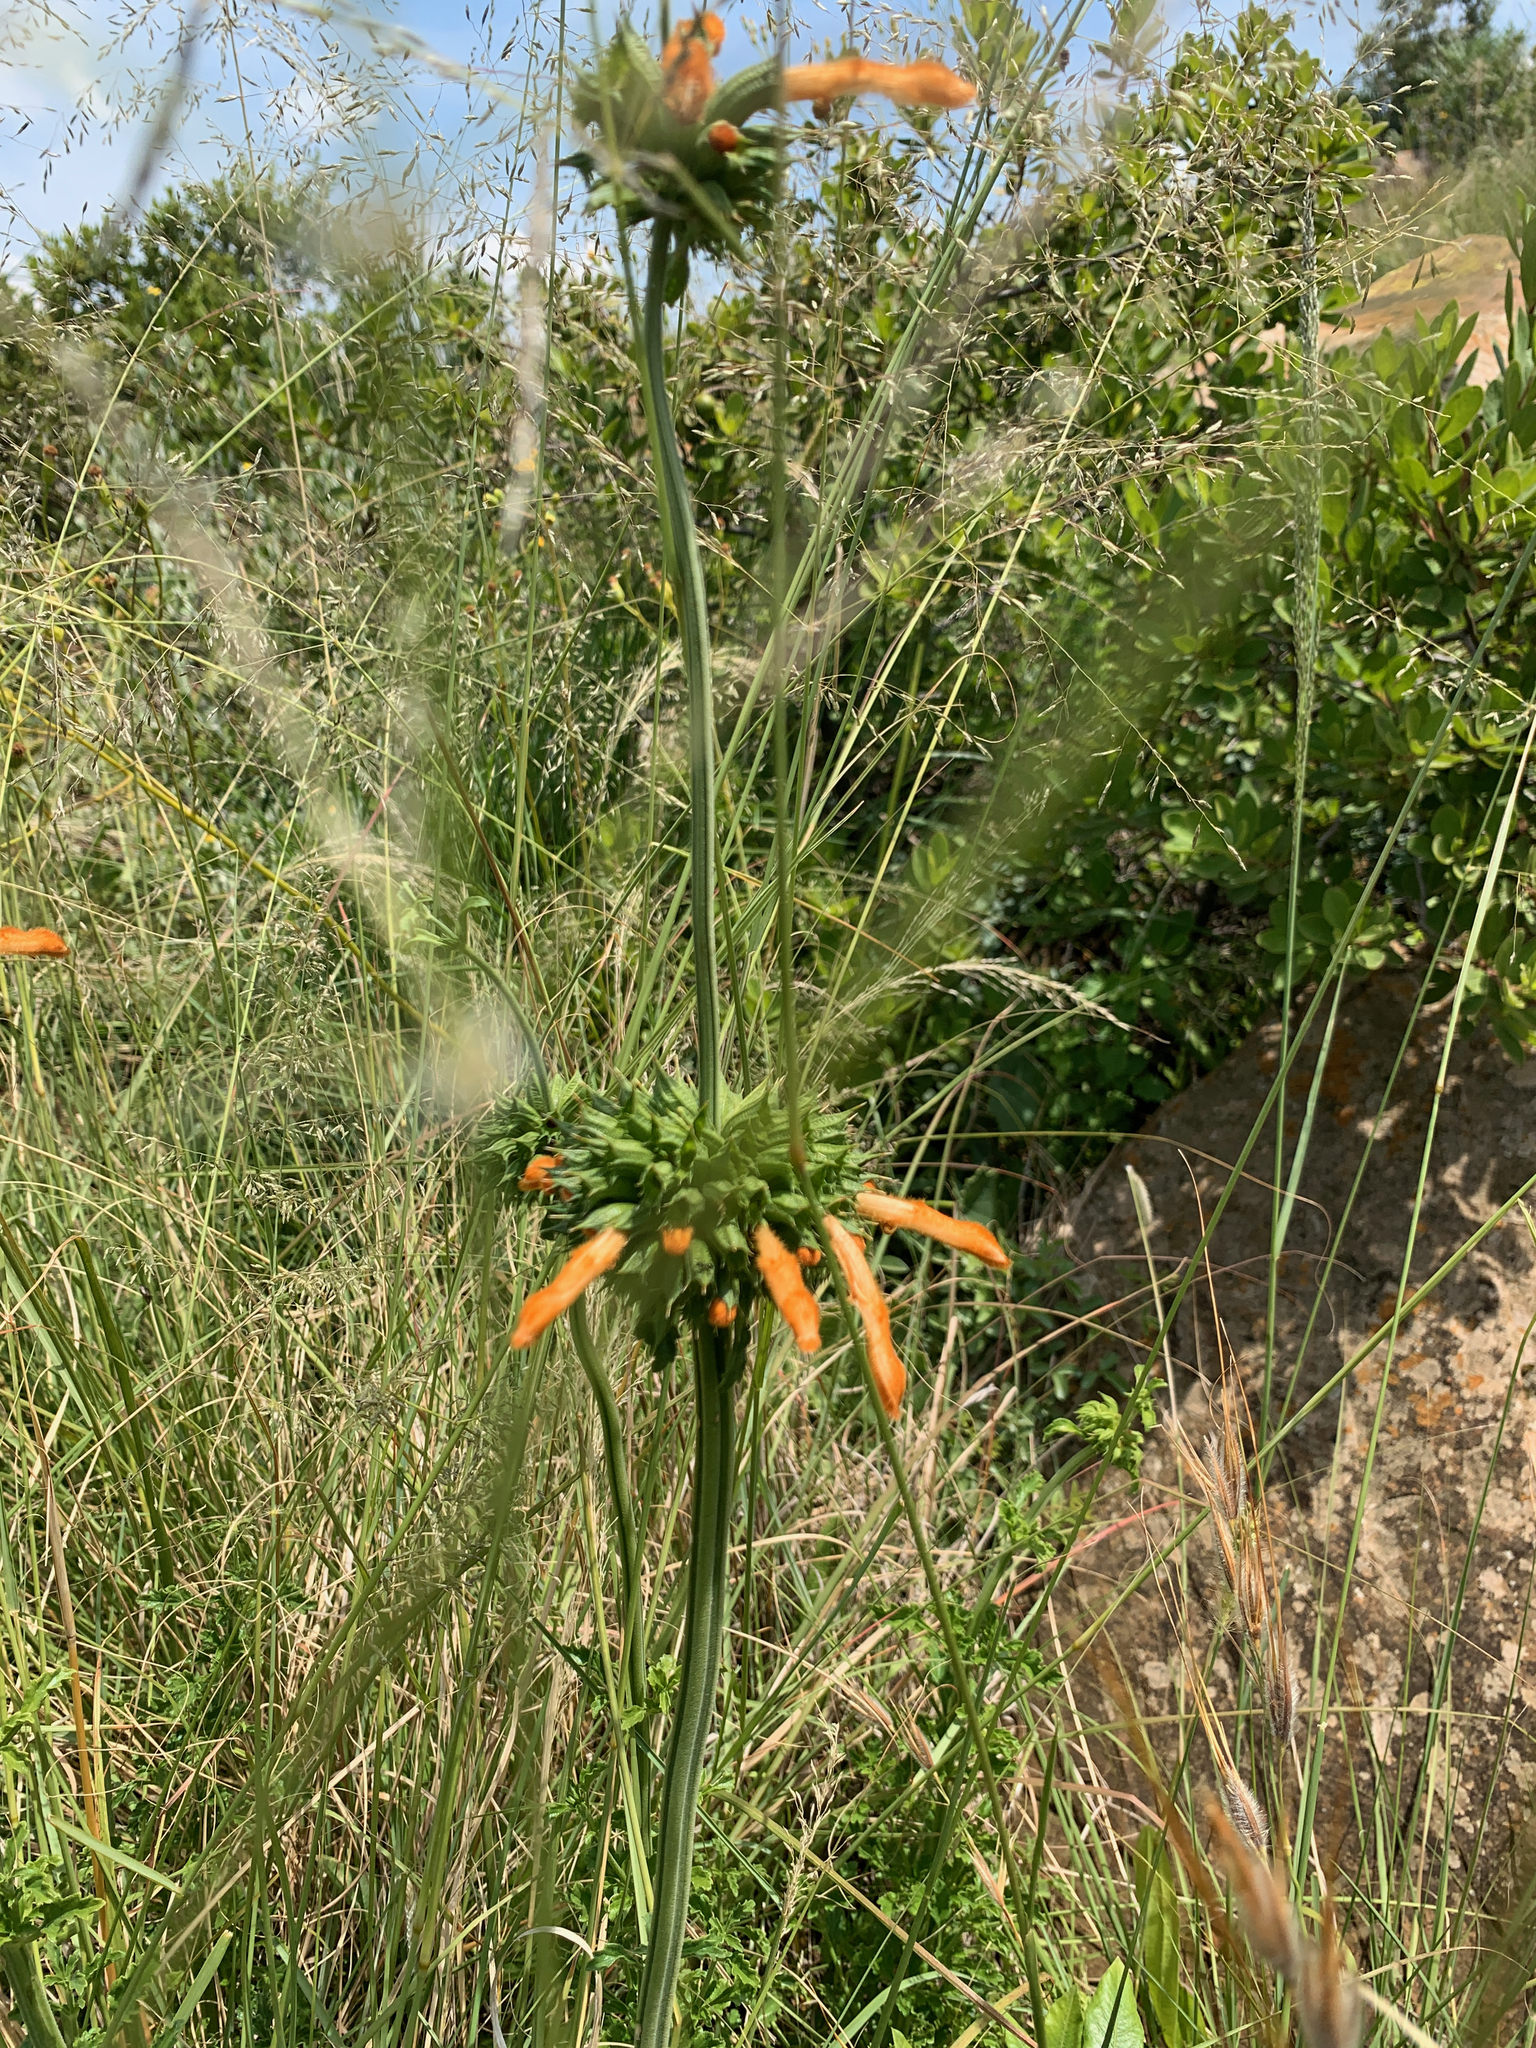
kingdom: Plantae
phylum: Tracheophyta
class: Magnoliopsida
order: Lamiales
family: Lamiaceae
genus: Leonotis
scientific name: Leonotis ocymifolia
